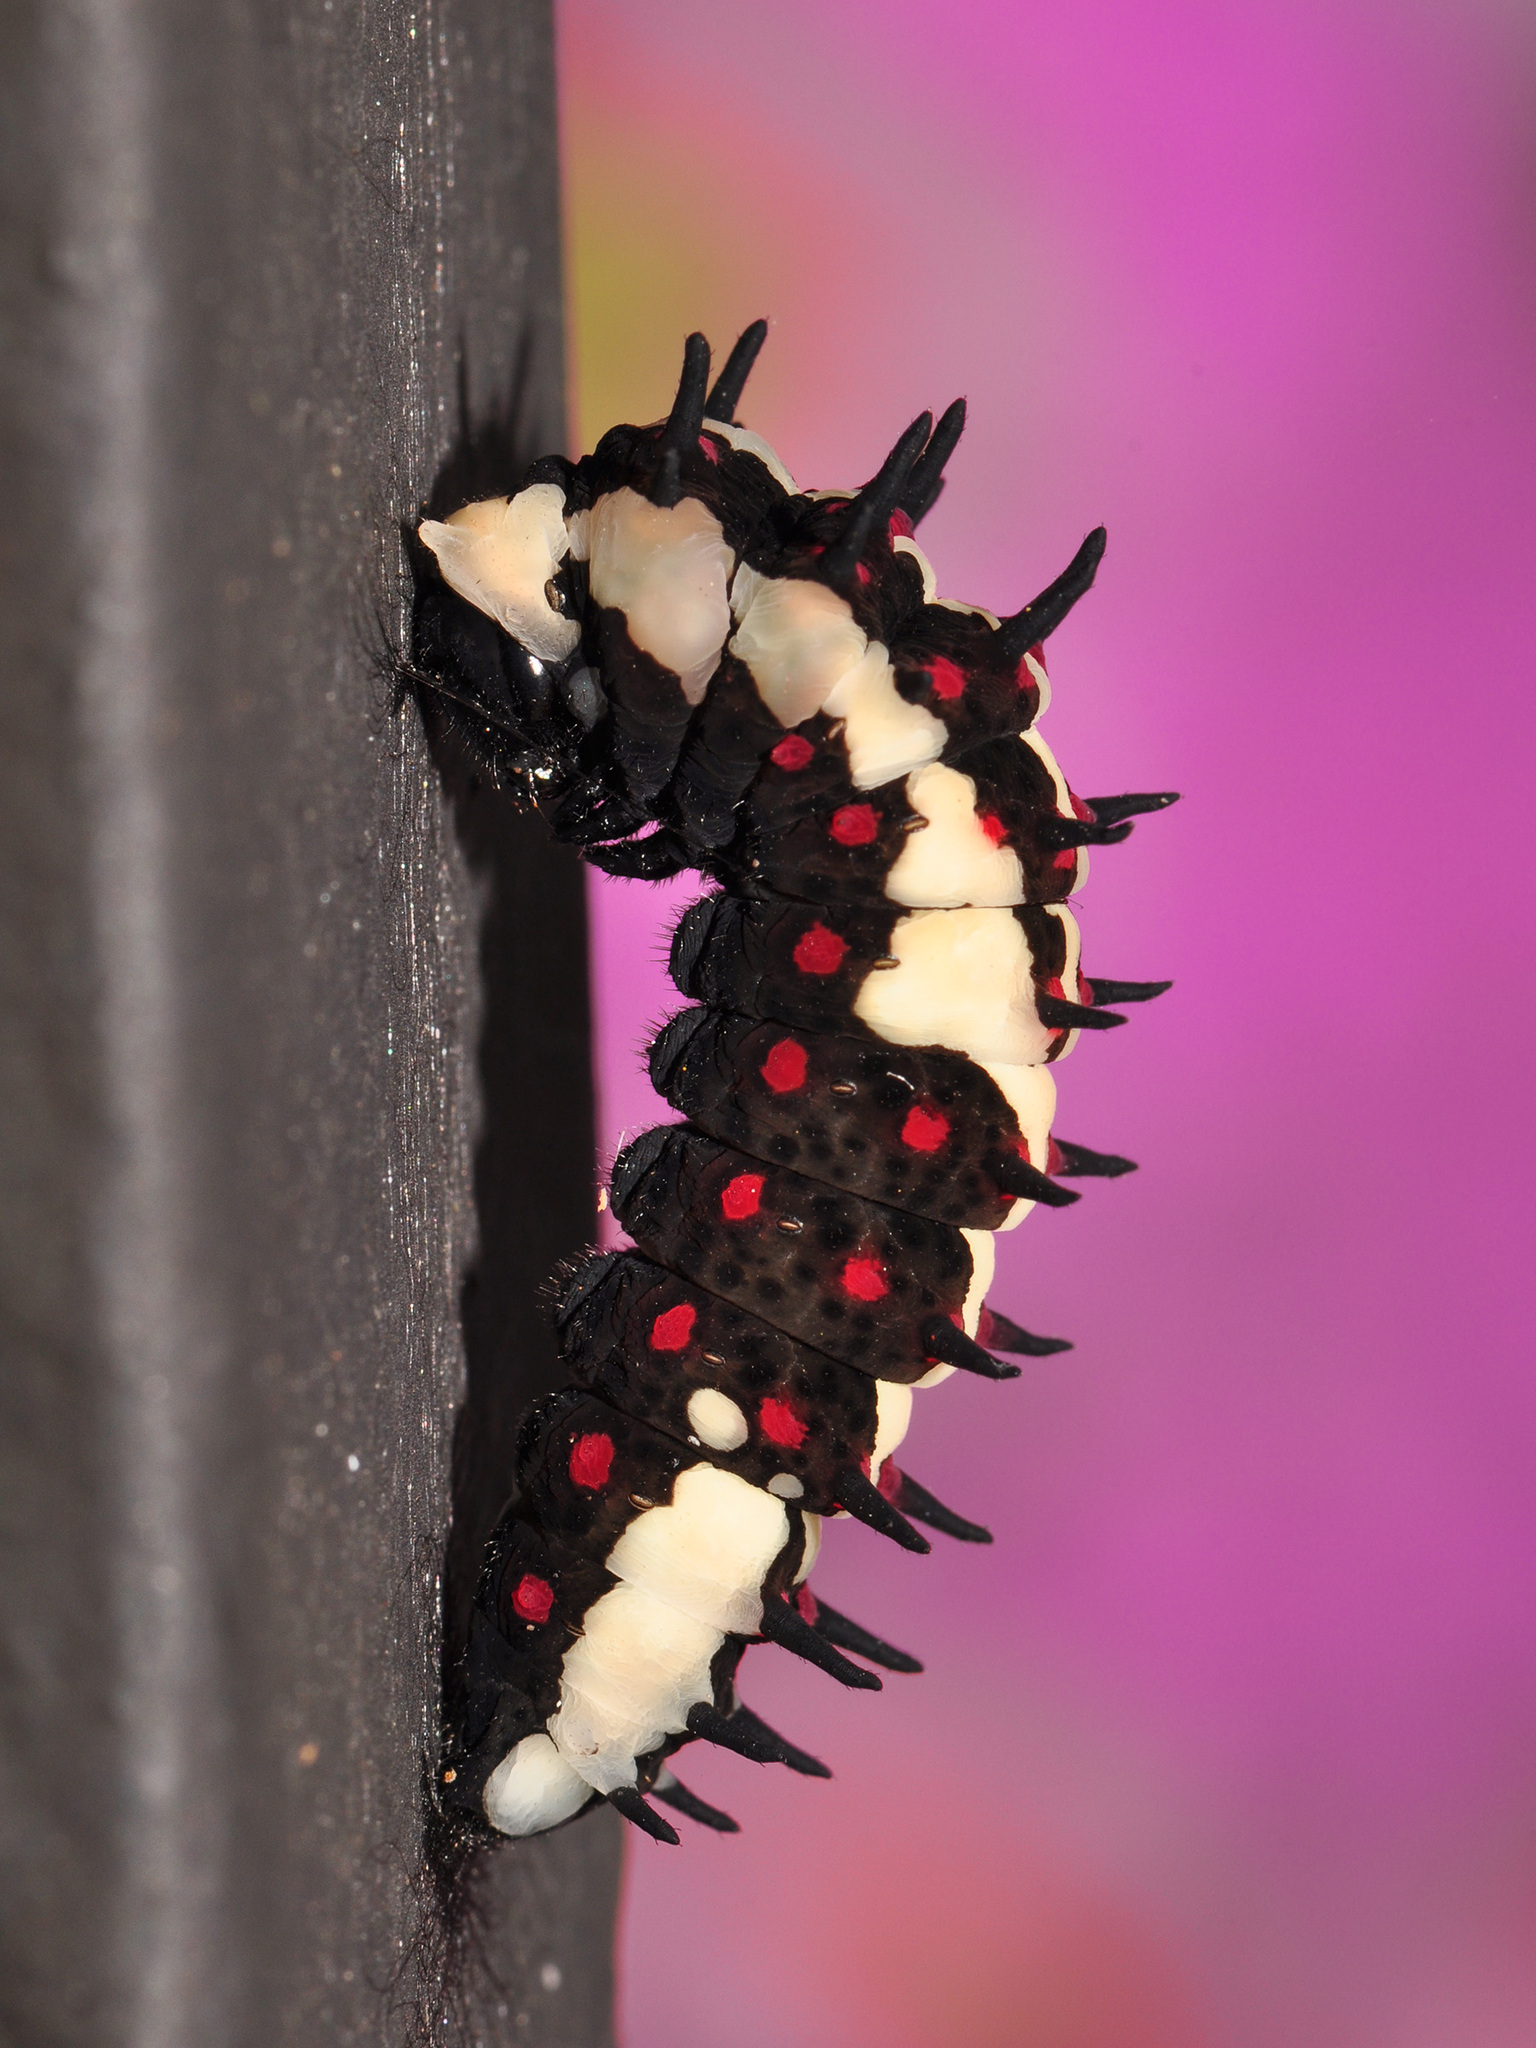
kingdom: Animalia
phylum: Arthropoda
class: Insecta
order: Lepidoptera
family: Papilionidae
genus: Chilasa
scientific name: Chilasa clytia
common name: Common mime
